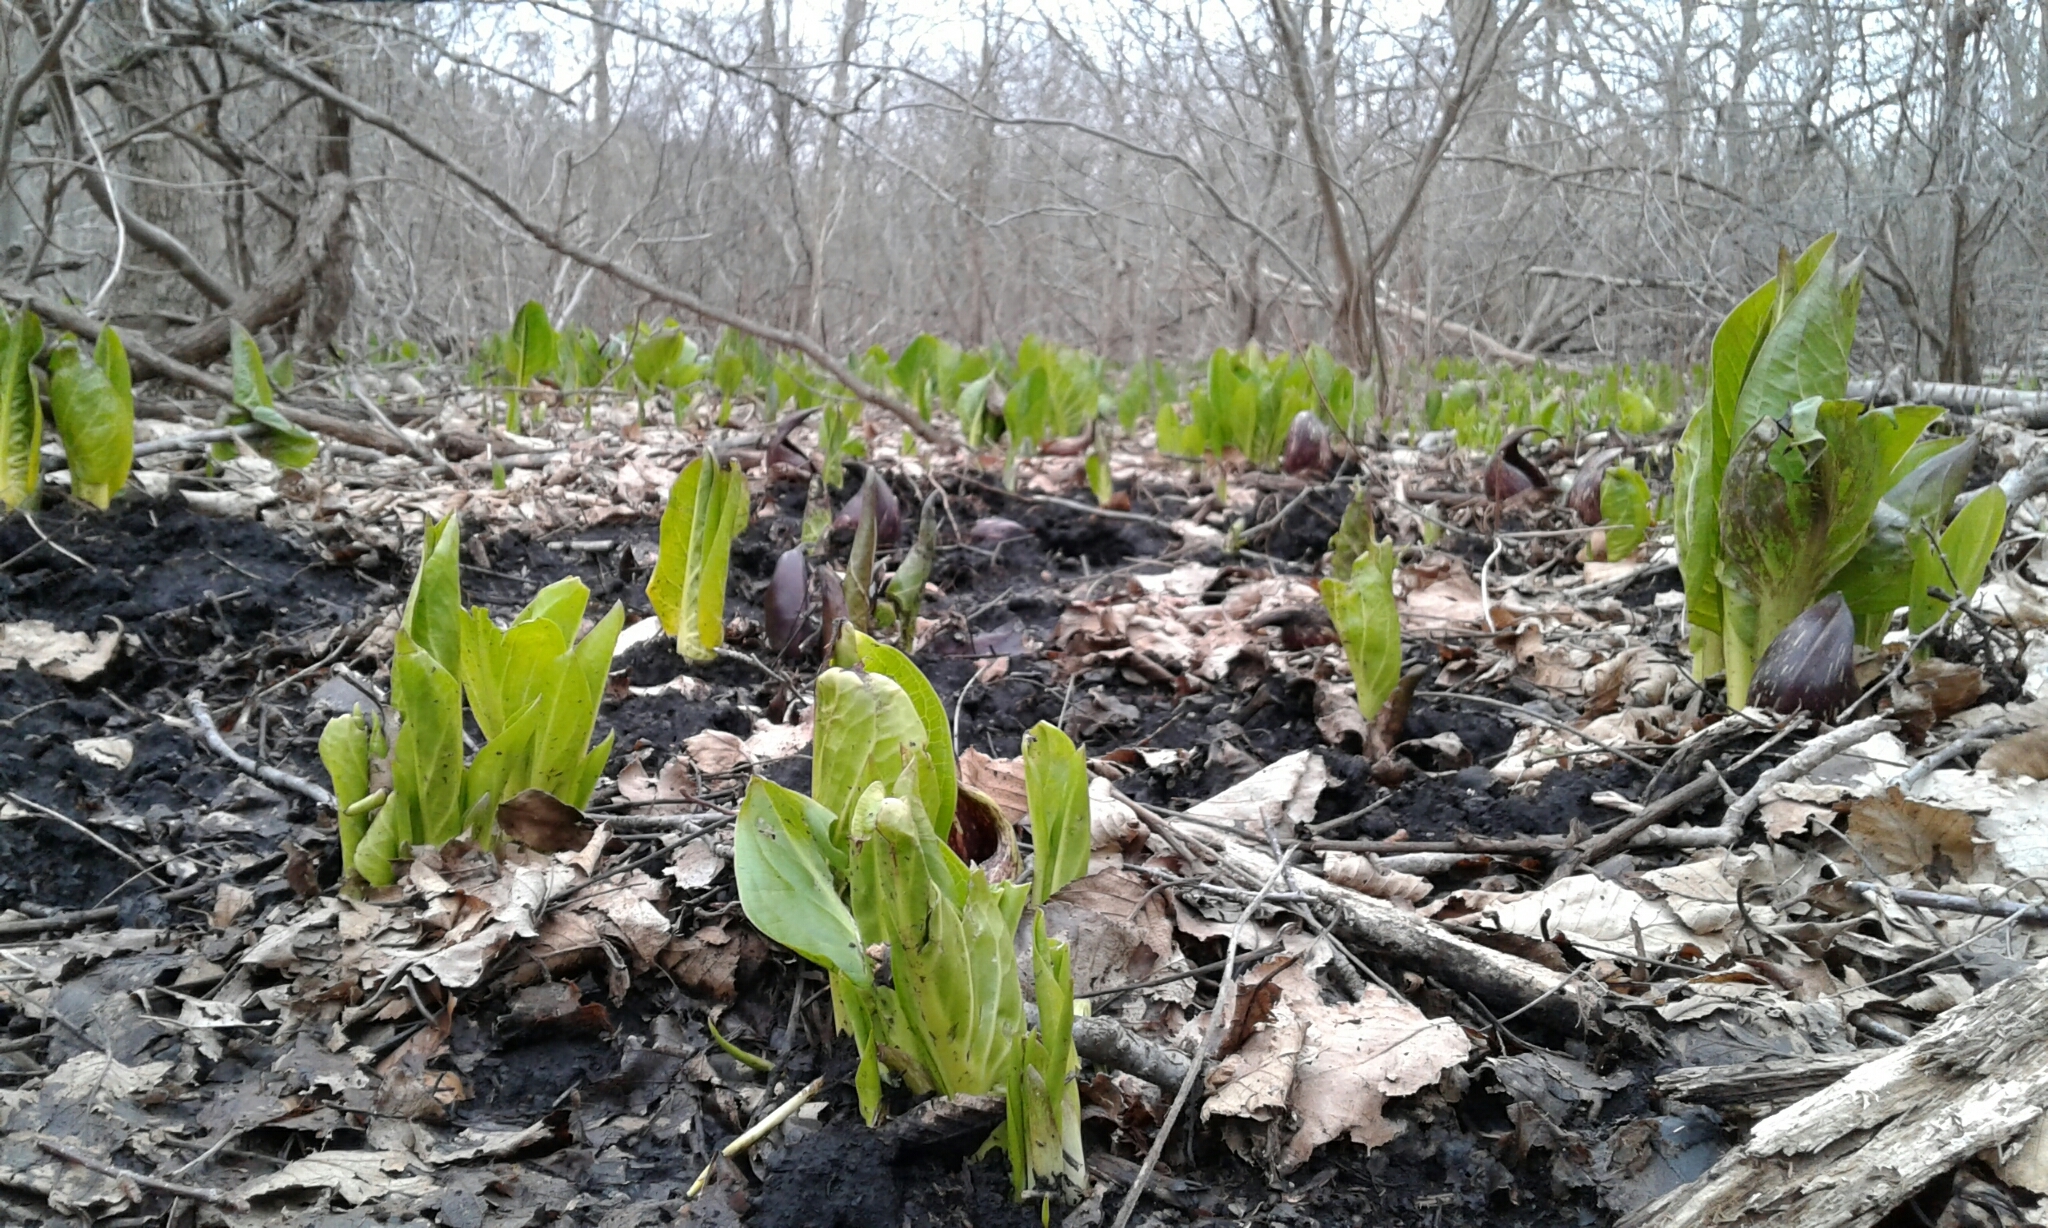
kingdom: Plantae
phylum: Tracheophyta
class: Liliopsida
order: Alismatales
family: Araceae
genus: Symplocarpus
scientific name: Symplocarpus foetidus
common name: Eastern skunk cabbage
